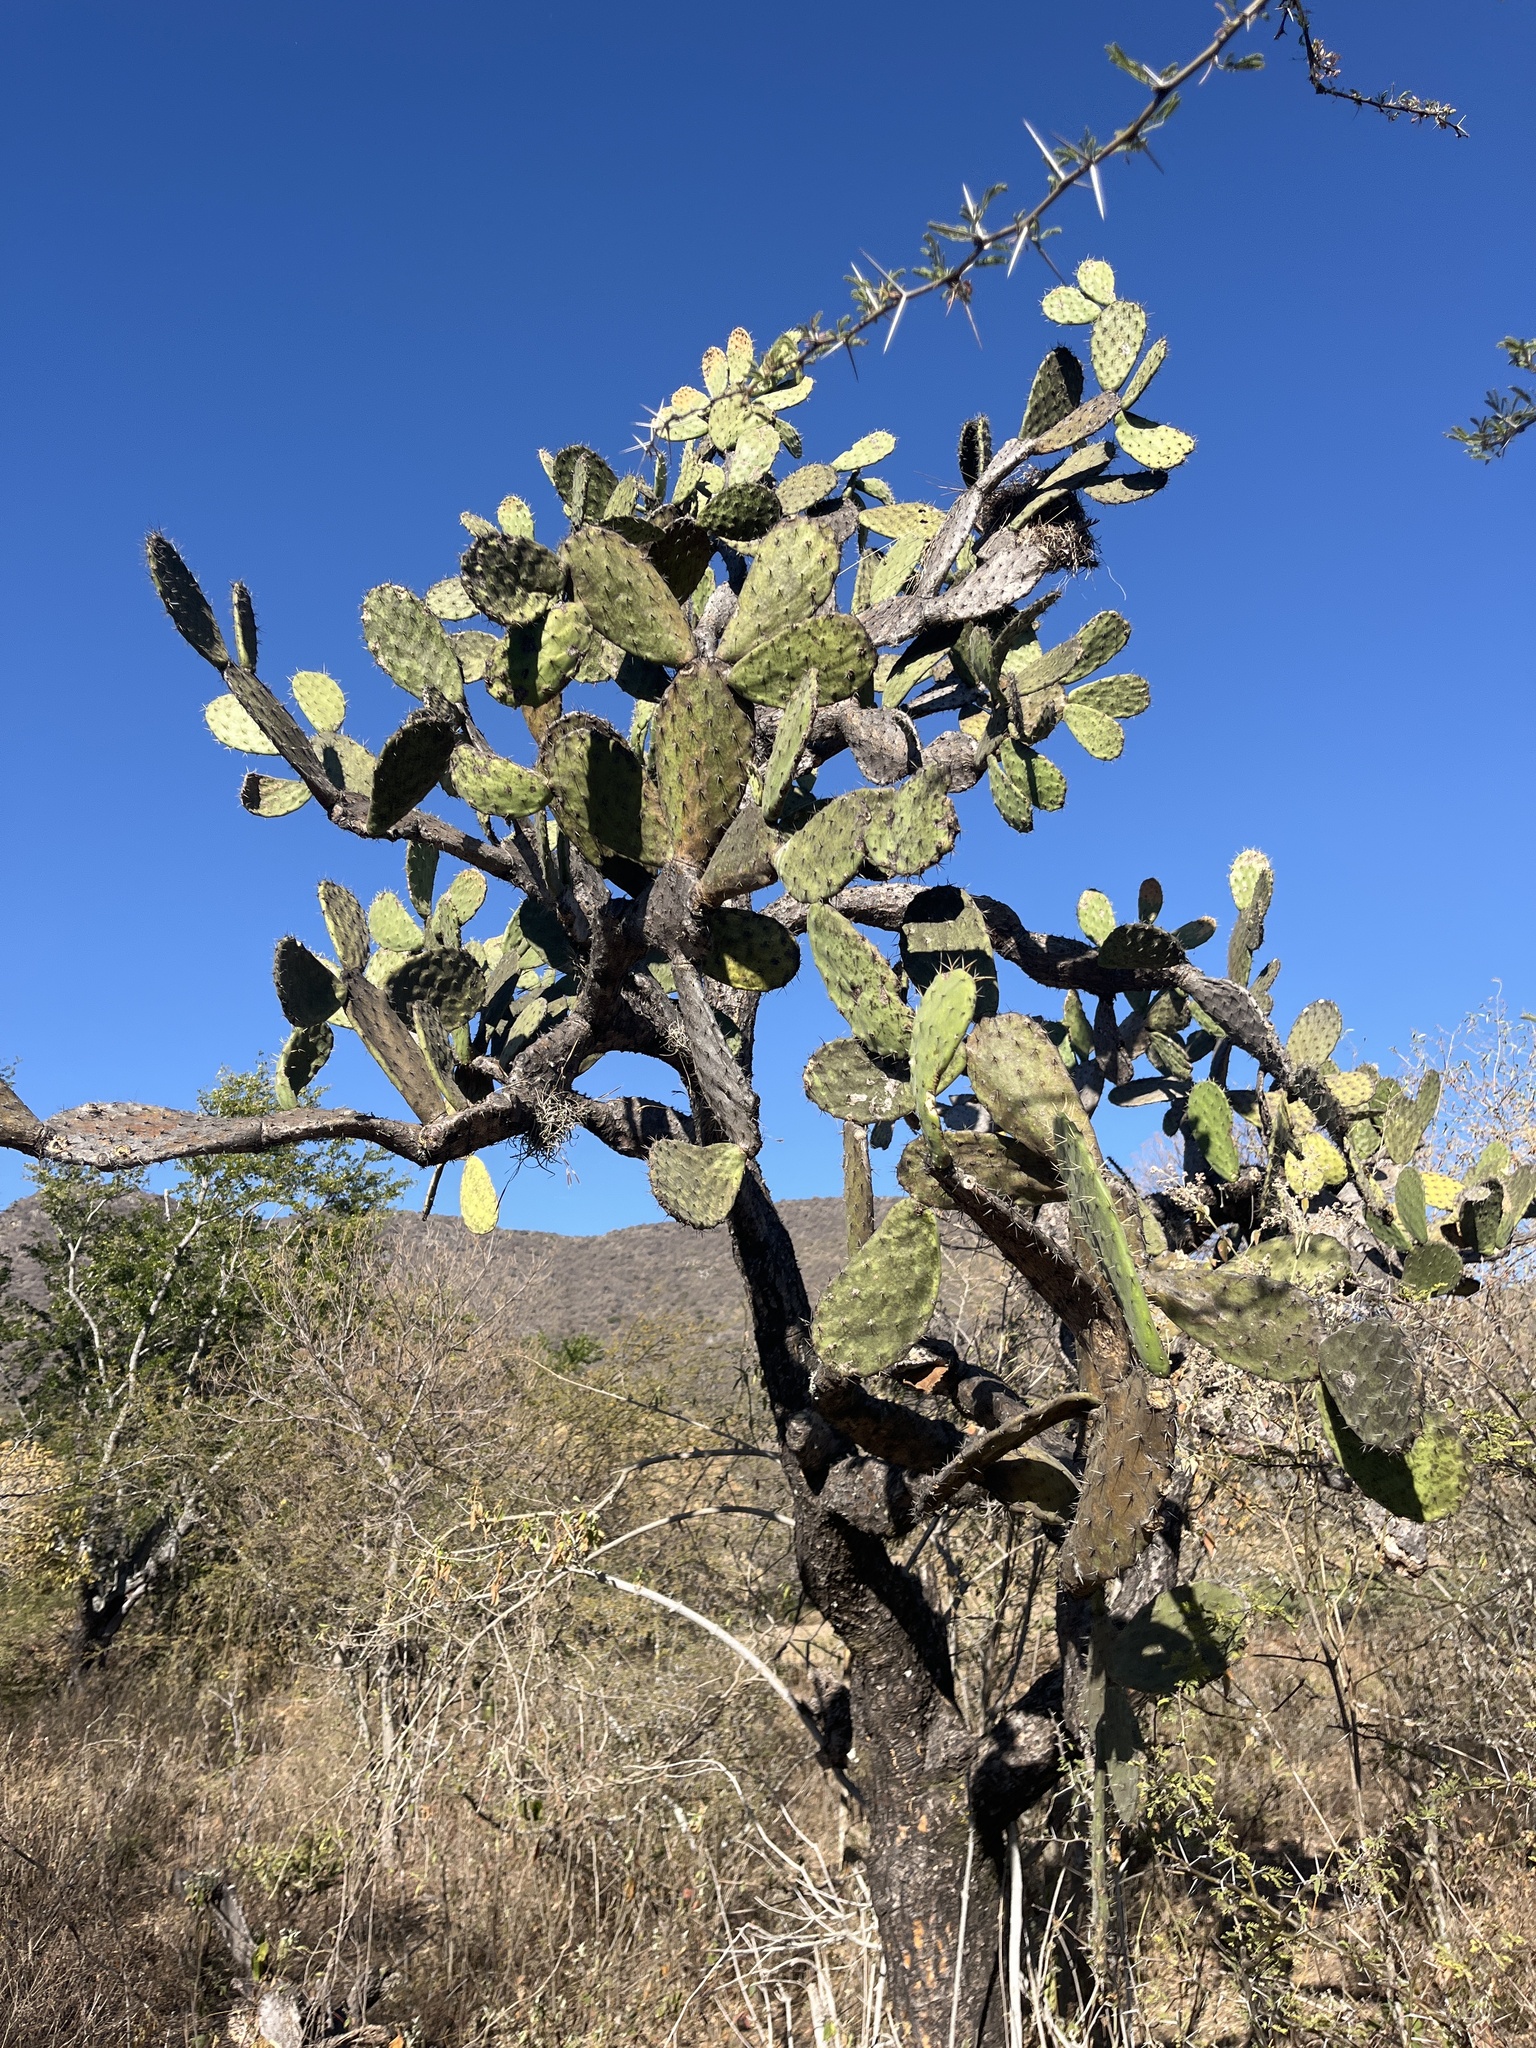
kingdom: Plantae
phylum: Tracheophyta
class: Magnoliopsida
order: Caryophyllales
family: Cactaceae
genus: Opuntia
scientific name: Opuntia tomentosa
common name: Woollyjoint pricklypear
